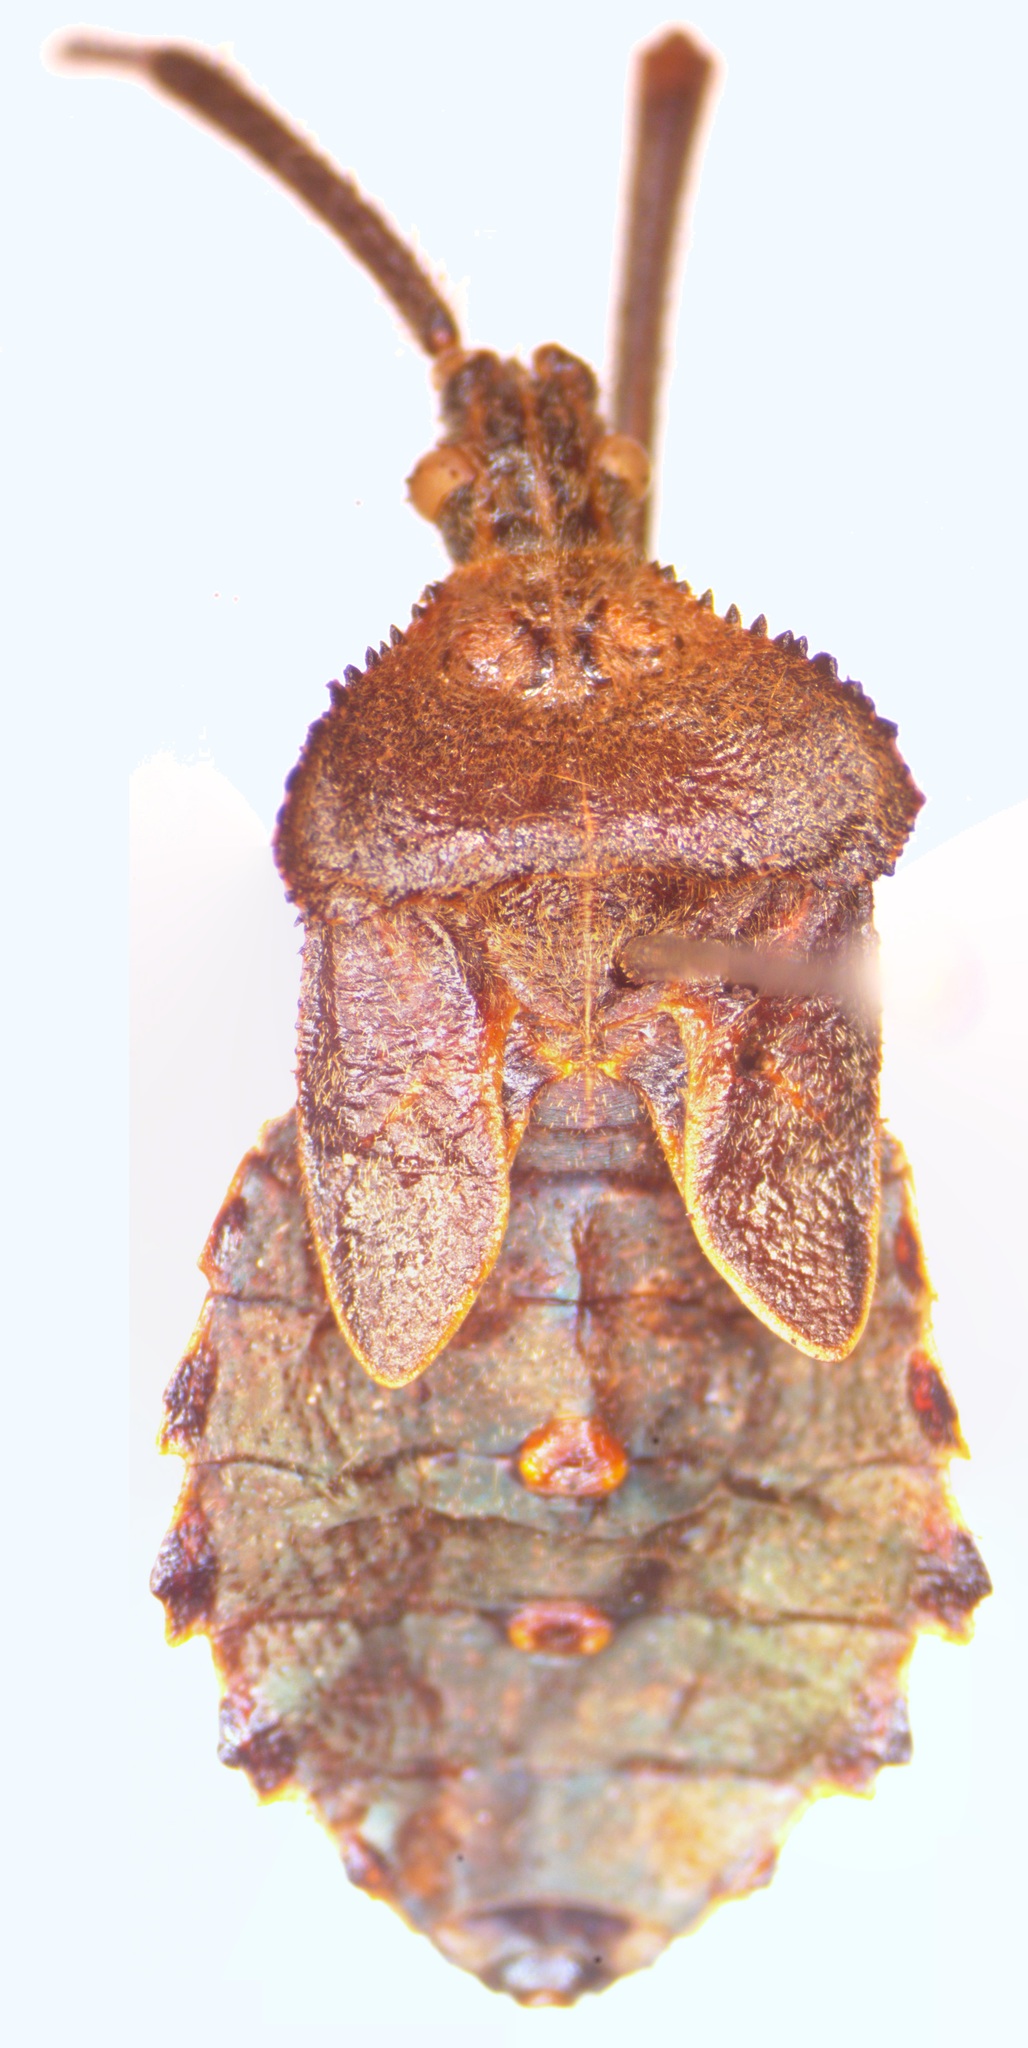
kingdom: Animalia
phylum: Arthropoda
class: Insecta
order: Hemiptera
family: Coreidae
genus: Acanthocephala
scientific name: Acanthocephala alata
